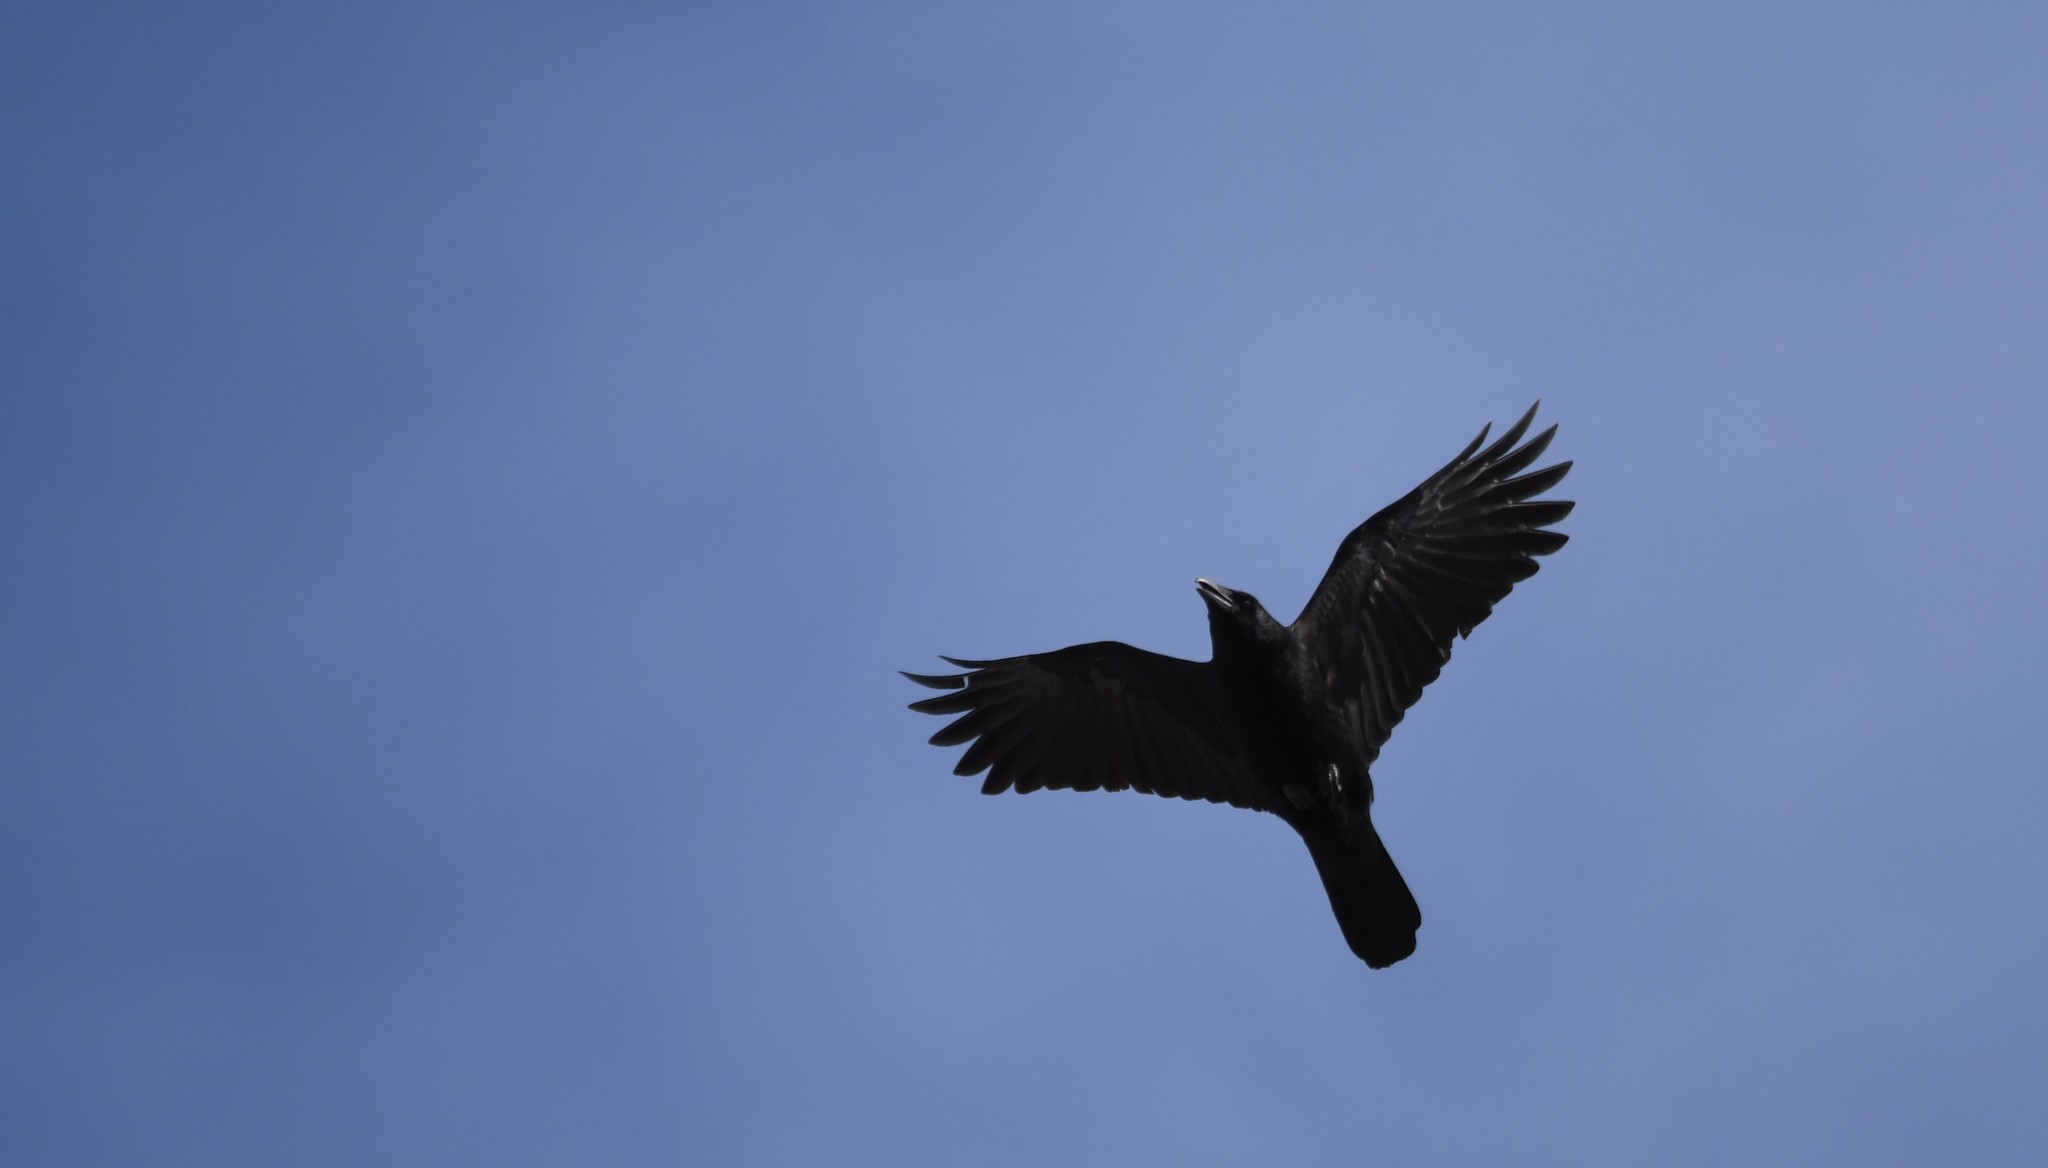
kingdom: Animalia
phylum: Chordata
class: Aves
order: Passeriformes
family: Corvidae
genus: Corvus
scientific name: Corvus corone
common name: Carrion crow
